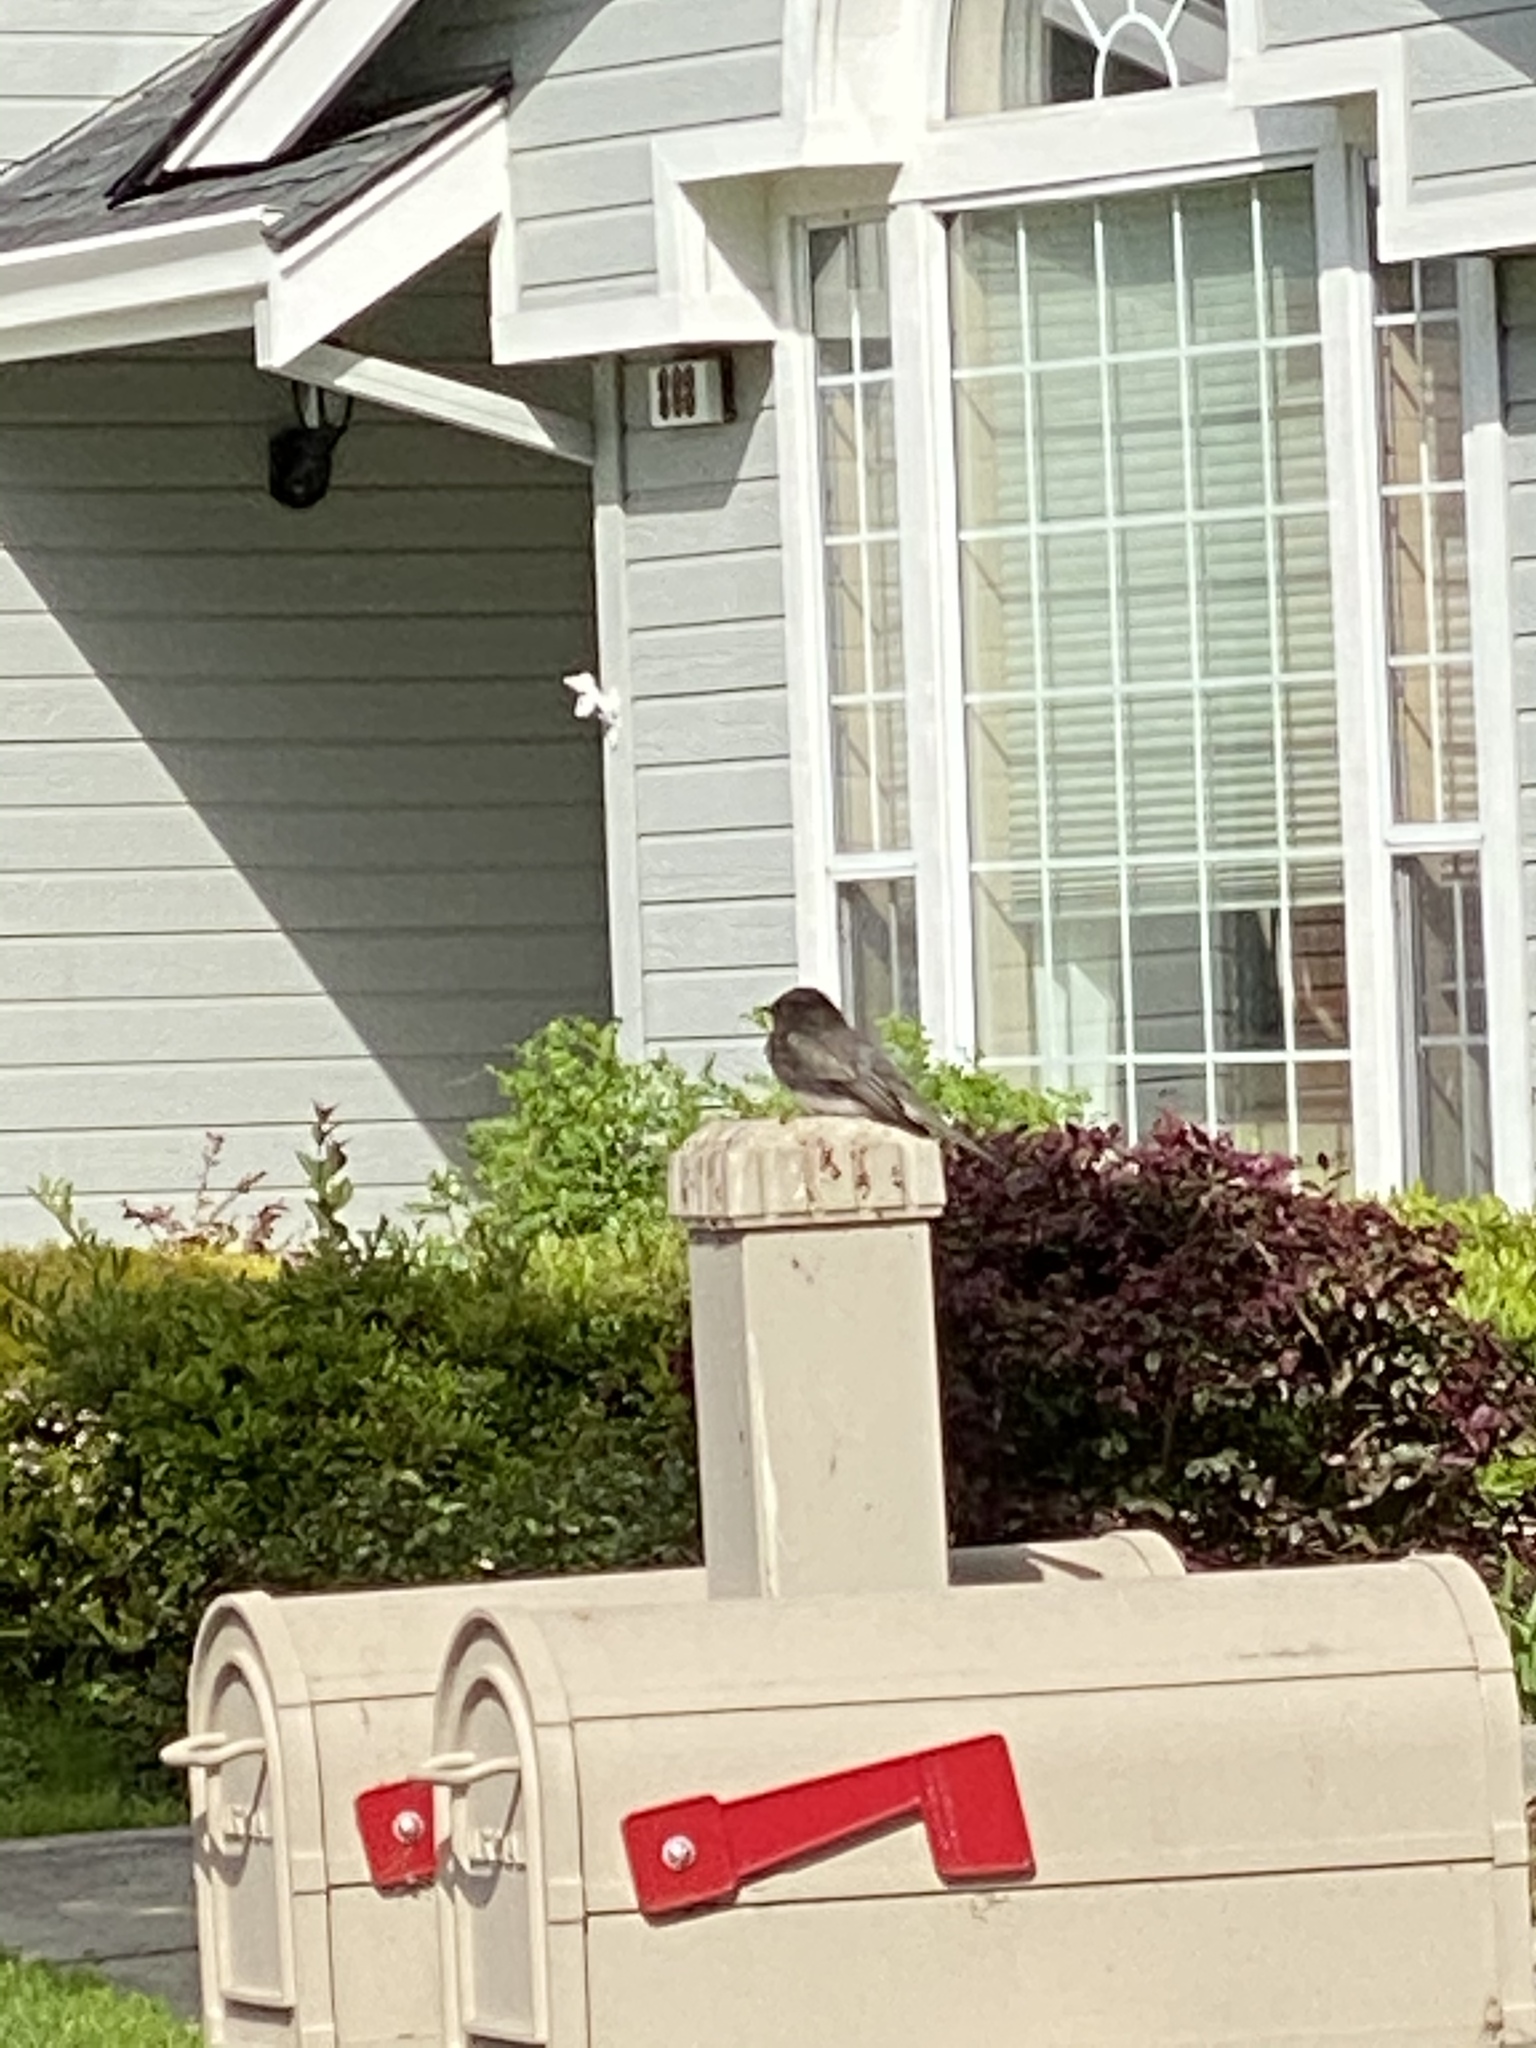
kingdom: Animalia
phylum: Chordata
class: Aves
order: Passeriformes
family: Tyrannidae
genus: Sayornis
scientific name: Sayornis nigricans
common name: Black phoebe
